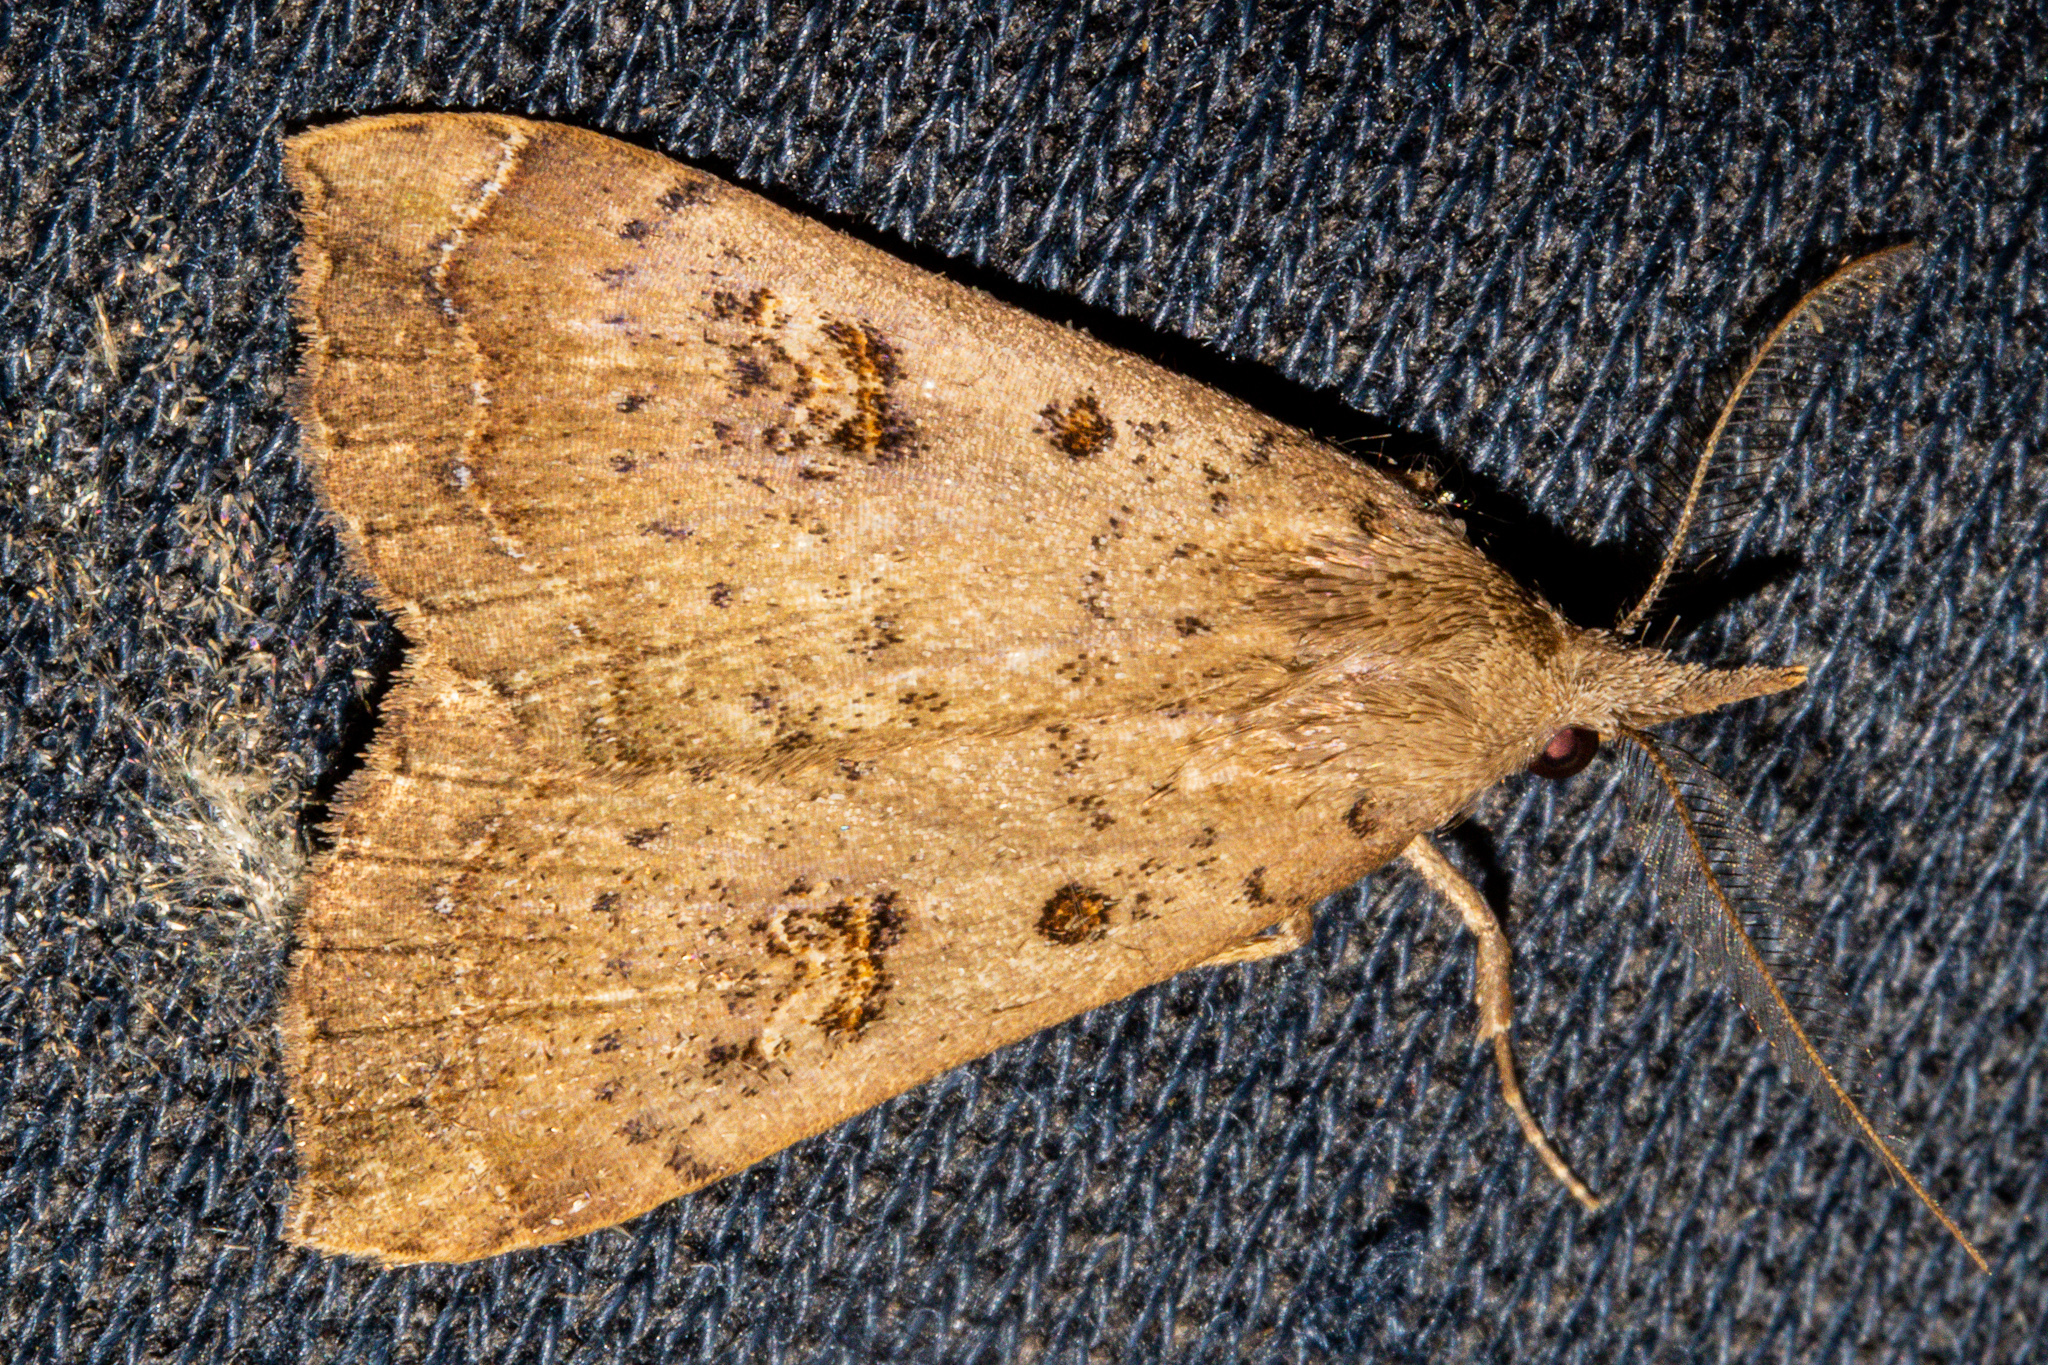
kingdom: Animalia
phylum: Arthropoda
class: Insecta
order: Lepidoptera
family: Erebidae
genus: Rhapsa
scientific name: Rhapsa scotosialis
